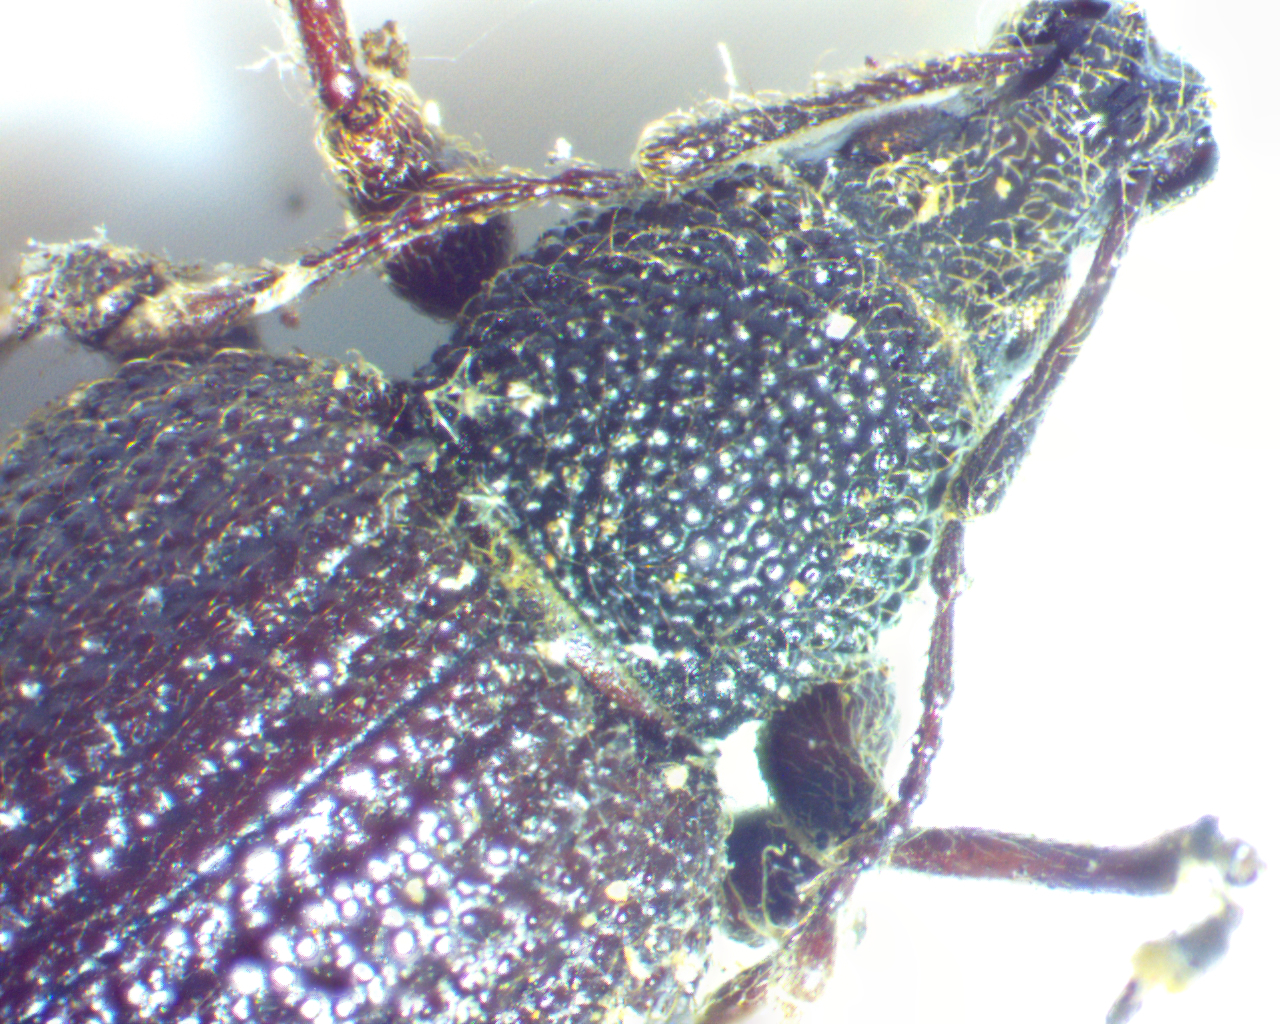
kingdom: Animalia
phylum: Arthropoda
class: Insecta
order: Coleoptera
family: Curculionidae
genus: Otiorhynchus
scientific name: Otiorhynchus rugosostriatus
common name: Weevil
